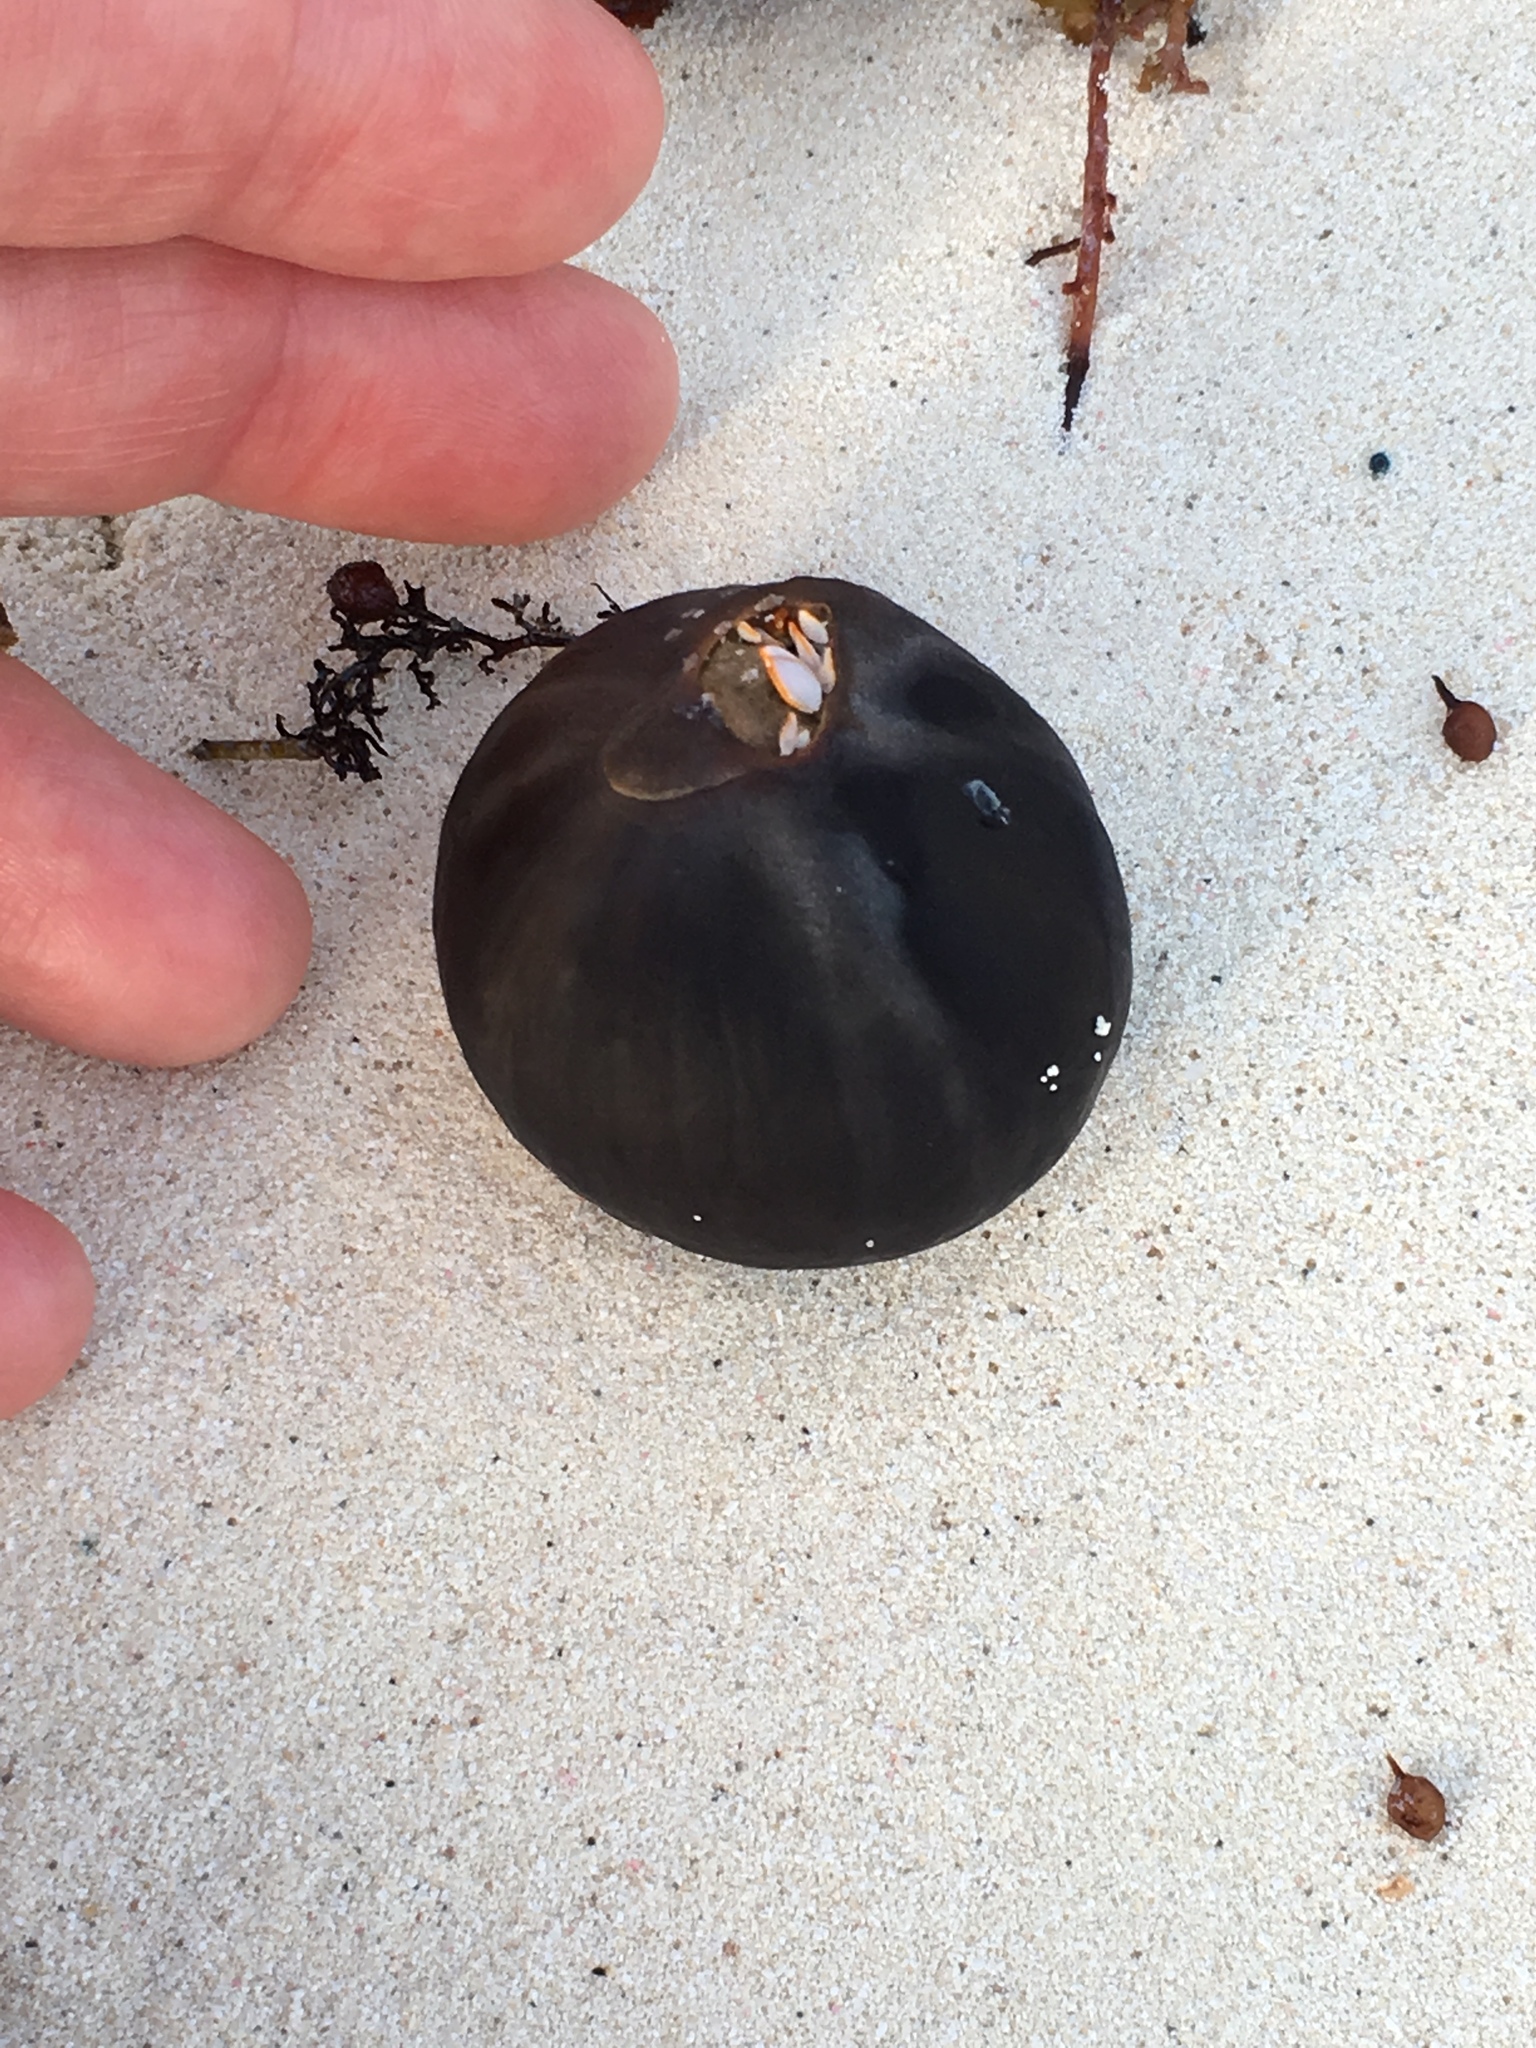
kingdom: Plantae
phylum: Tracheophyta
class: Liliopsida
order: Arecales
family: Arecaceae
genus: Manicaria
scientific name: Manicaria saccifera
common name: Sea coconut
